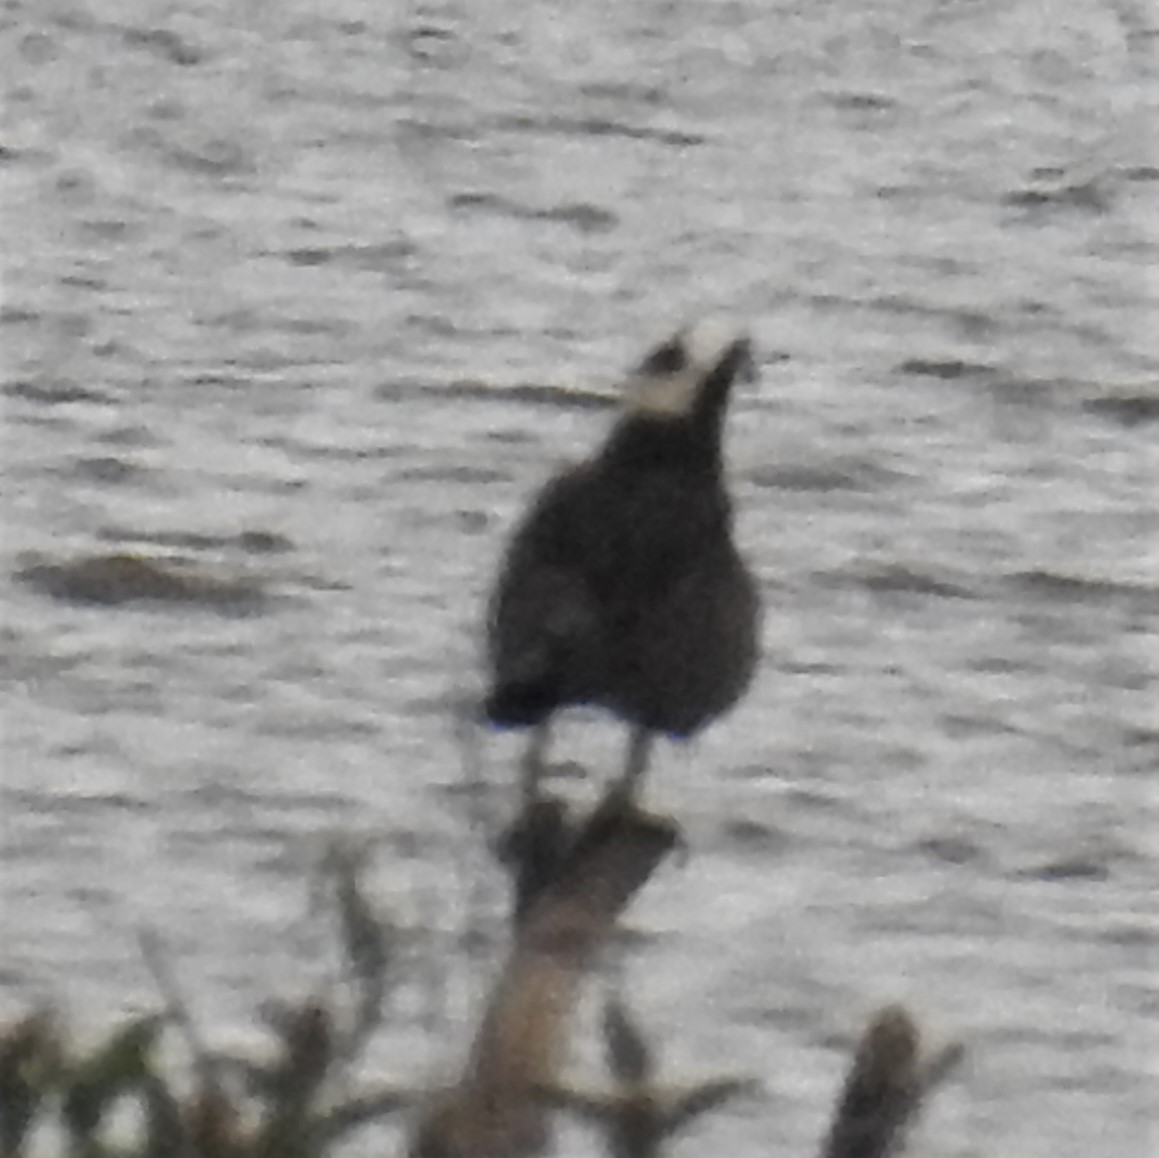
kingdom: Animalia
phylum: Chordata
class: Aves
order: Accipitriformes
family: Pandionidae
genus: Pandion
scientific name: Pandion haliaetus
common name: Osprey
